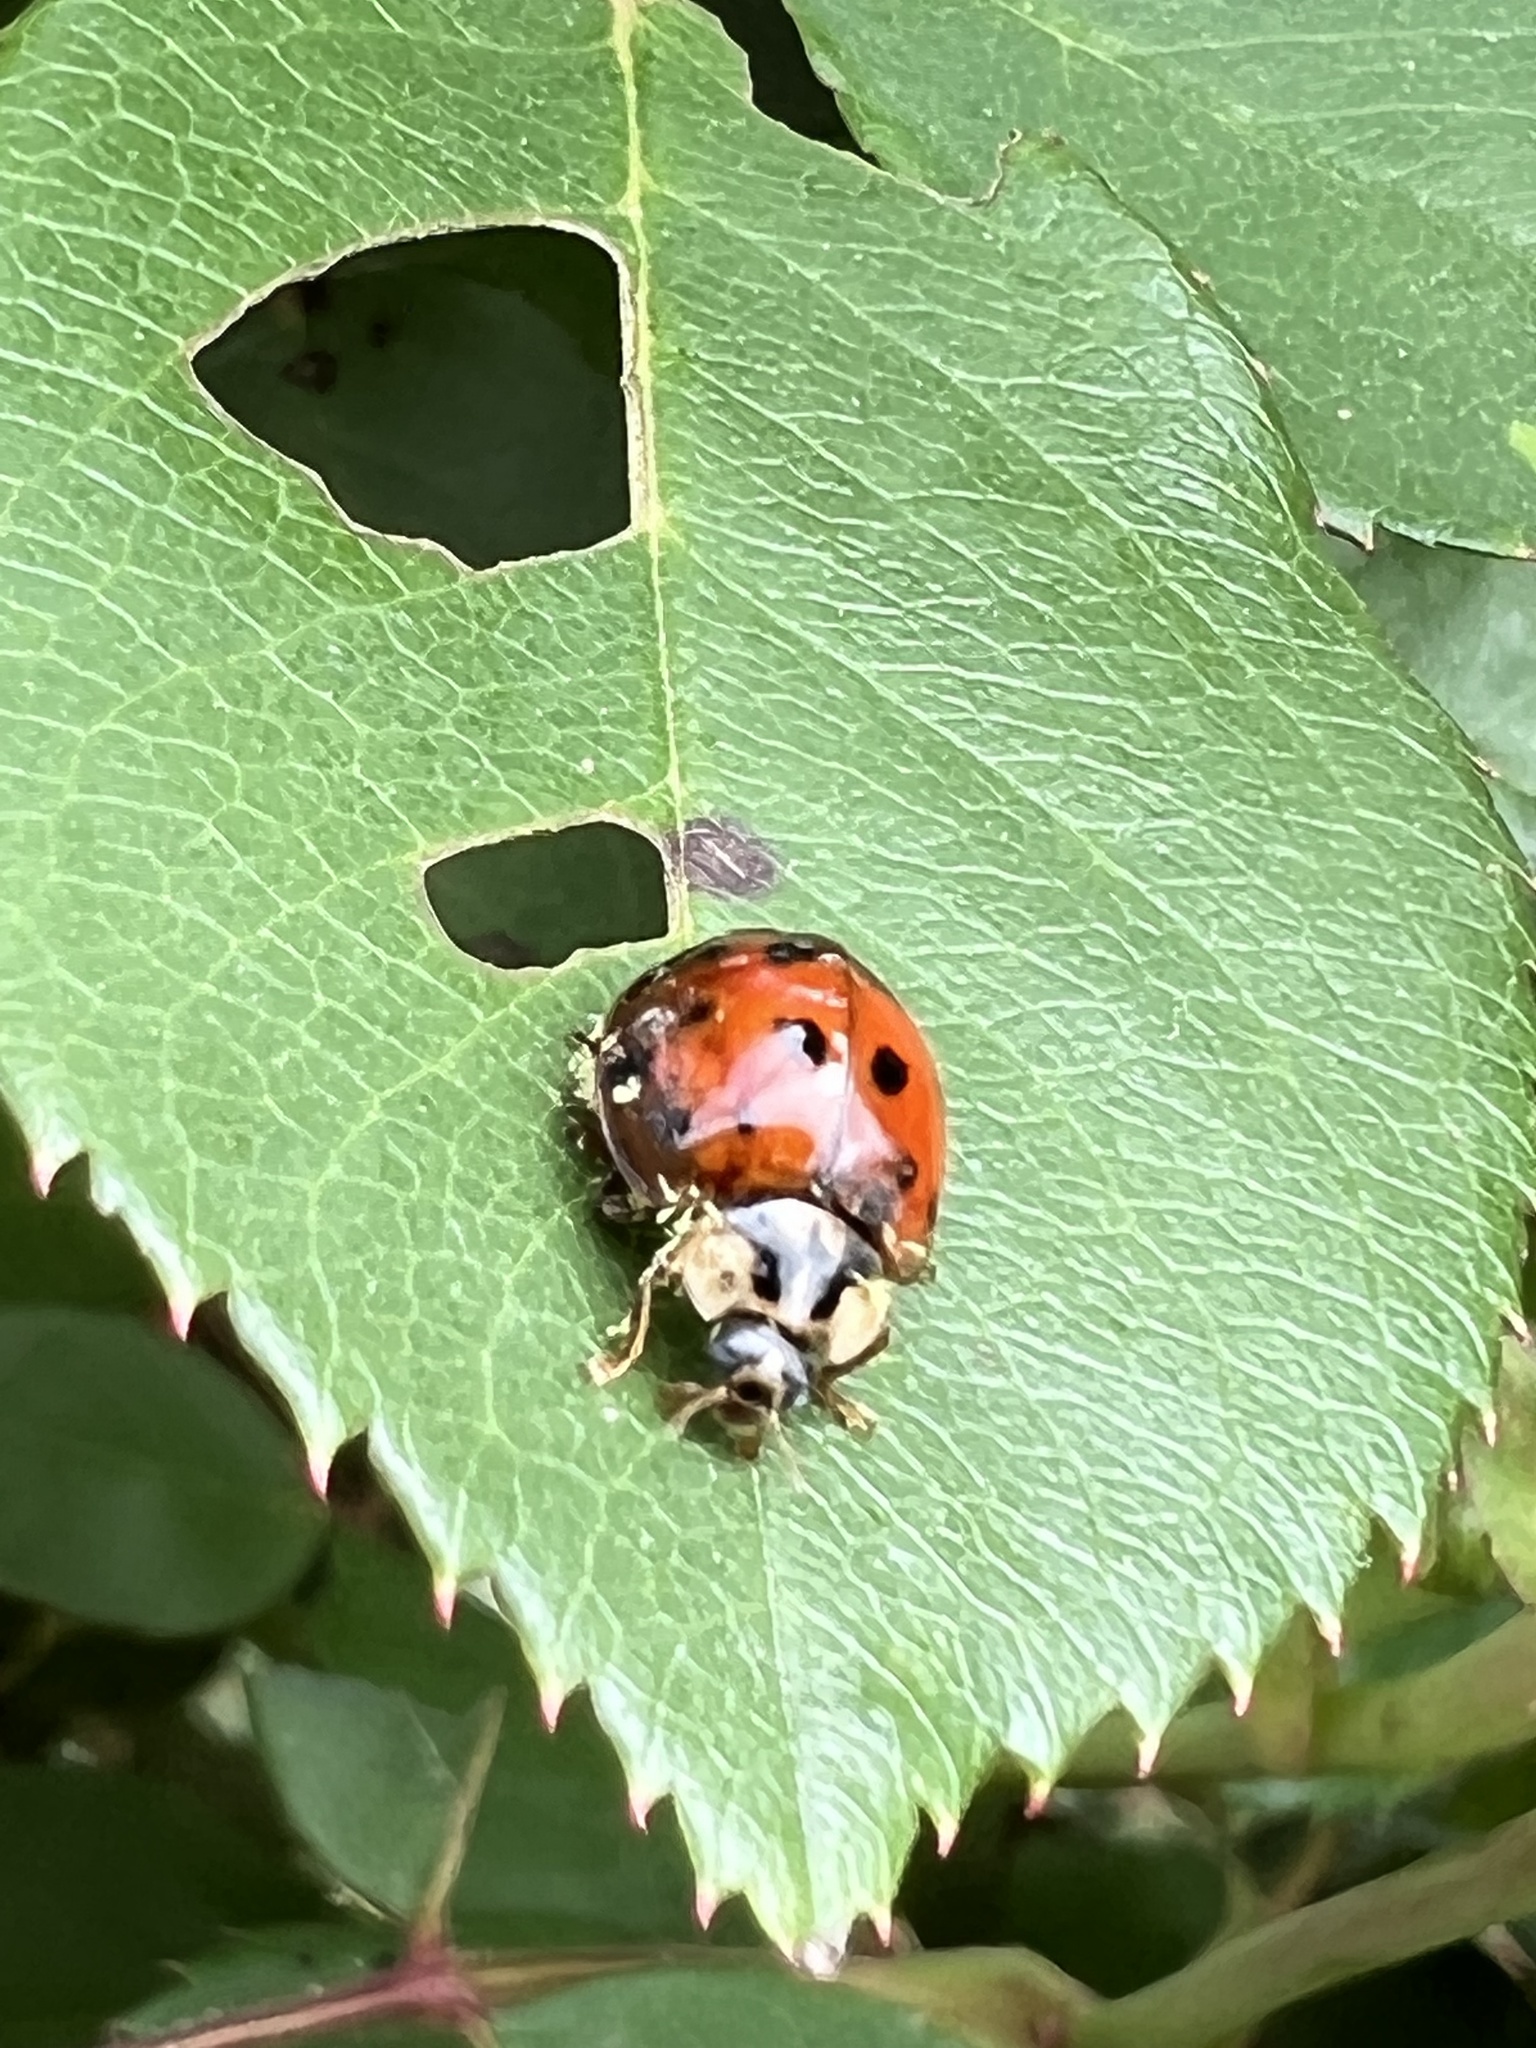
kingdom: Fungi
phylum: Ascomycota
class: Laboulbeniomycetes
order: Laboulbeniales
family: Laboulbeniaceae
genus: Hesperomyces
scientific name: Hesperomyces harmoniae
